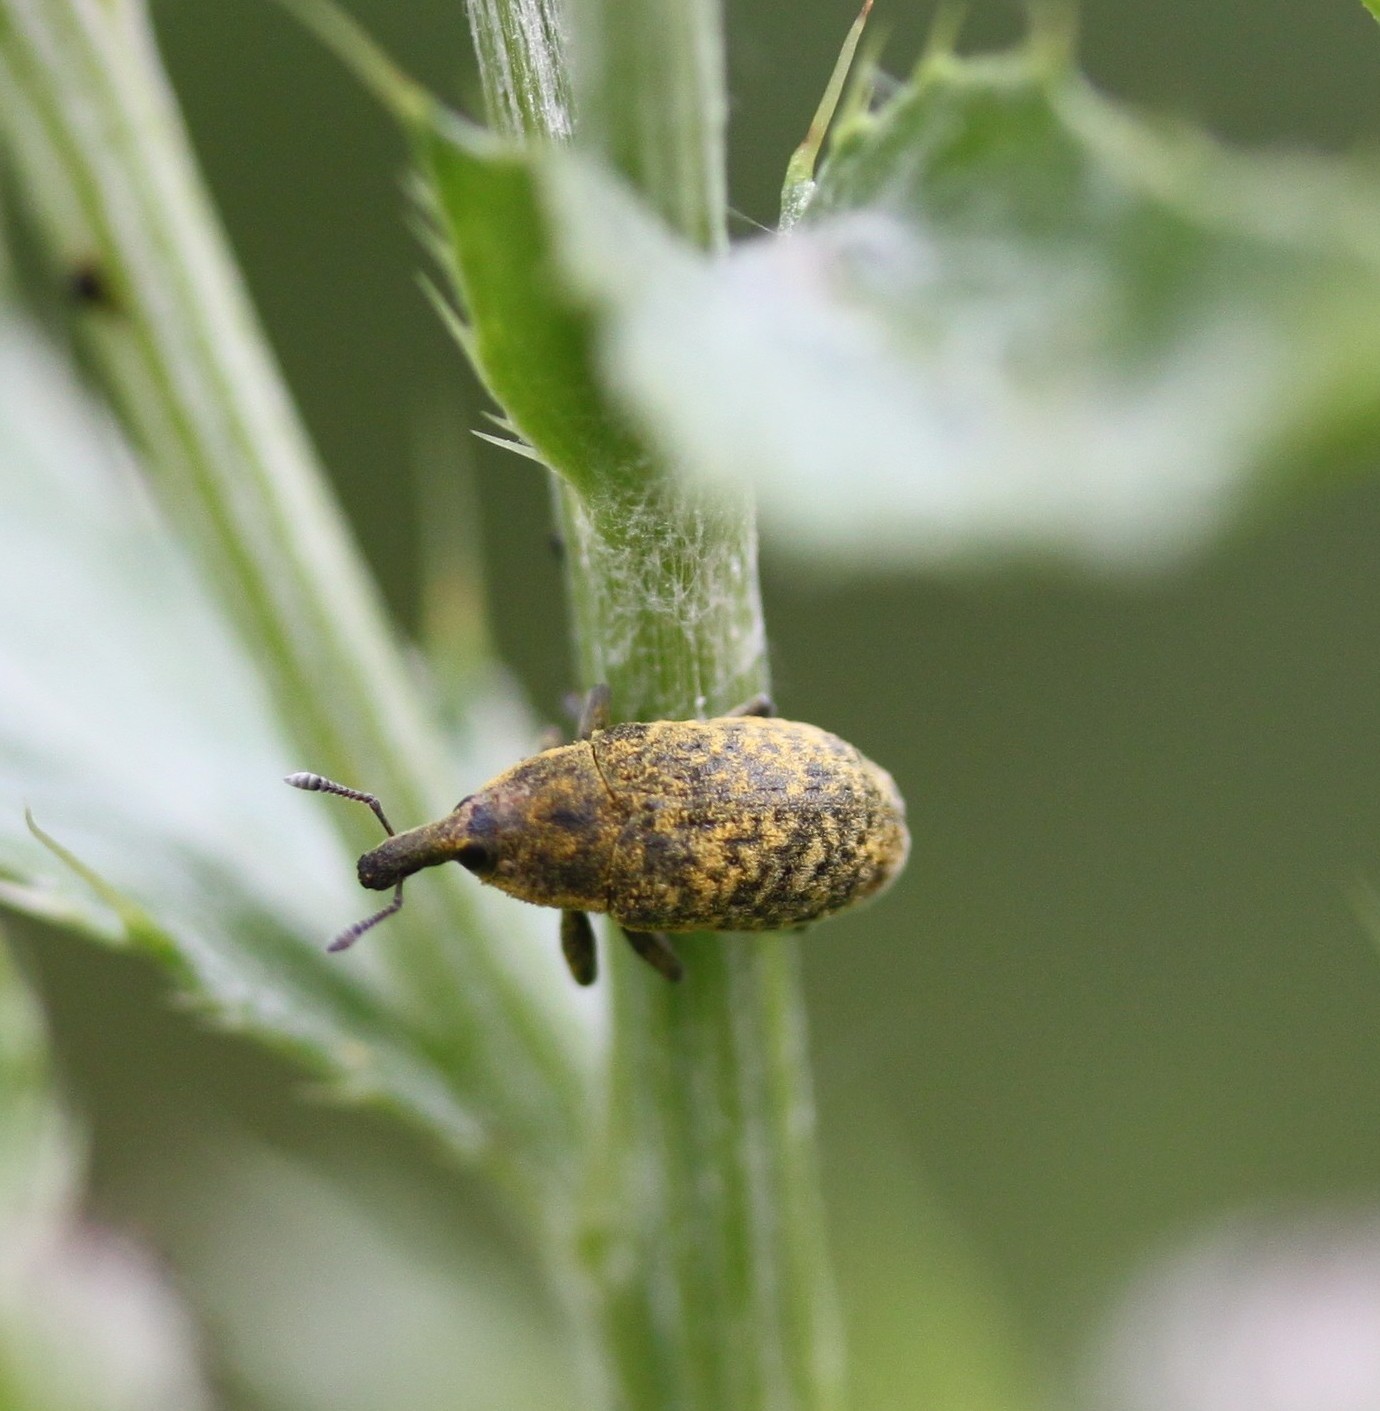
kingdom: Animalia
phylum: Arthropoda
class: Insecta
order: Coleoptera
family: Curculionidae
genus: Larinus
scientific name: Larinus carlinae
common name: Weevil
